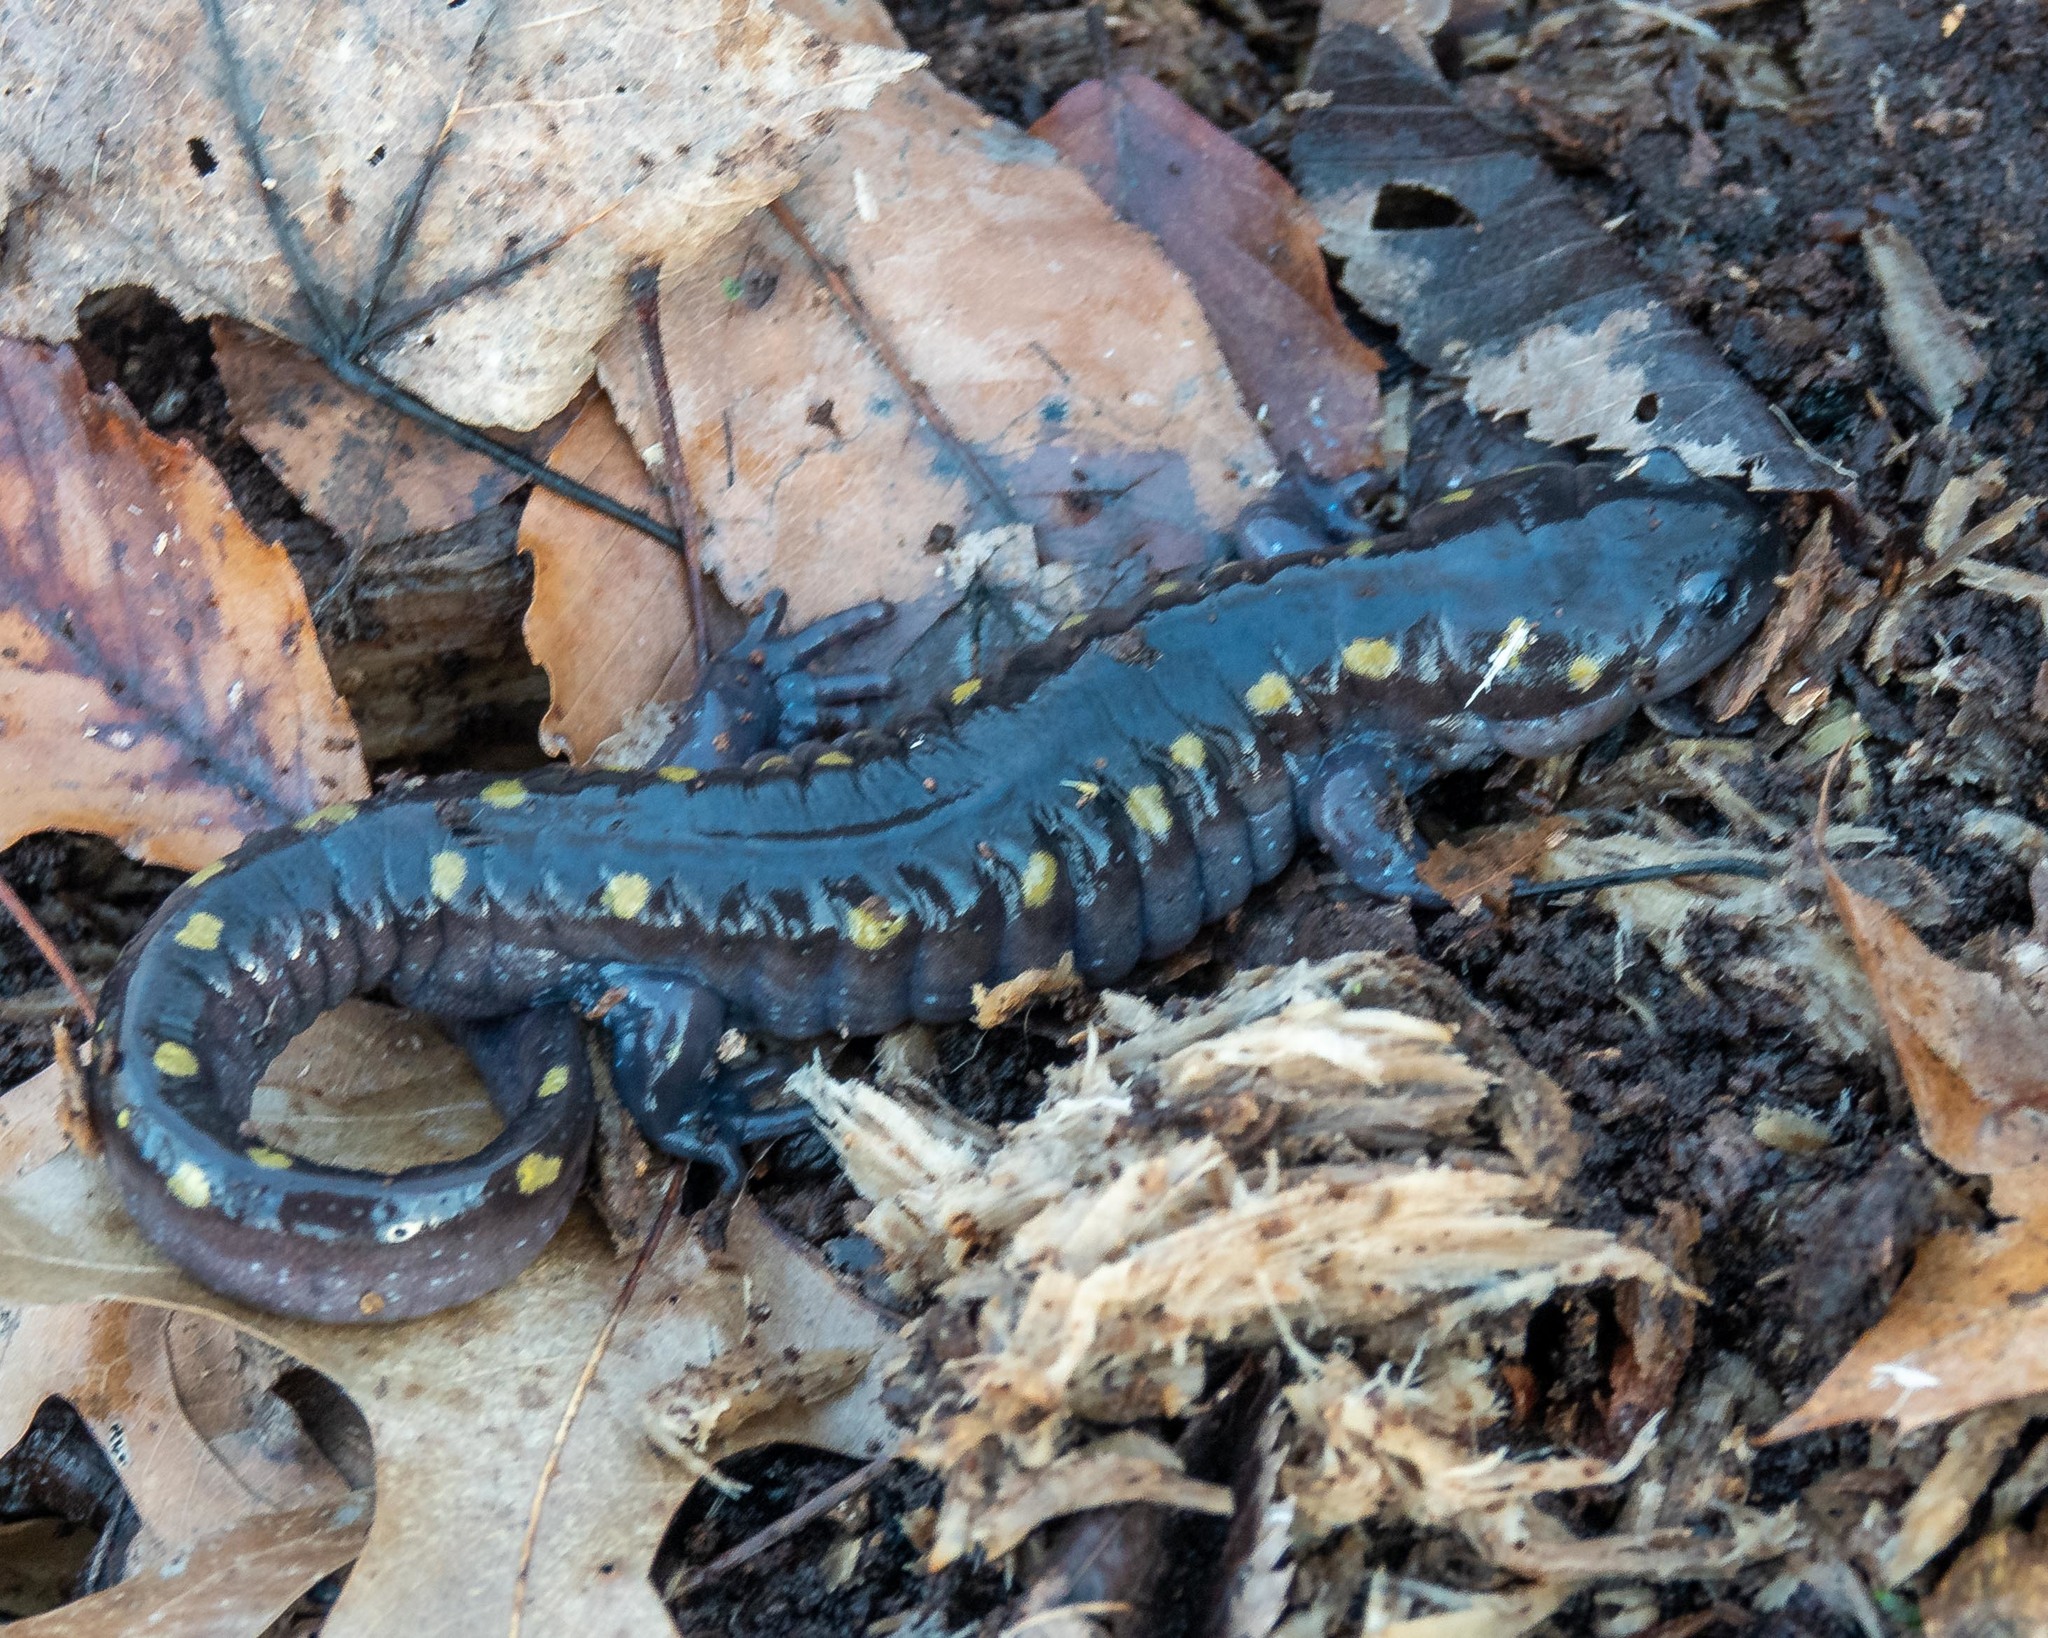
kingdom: Animalia
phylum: Chordata
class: Amphibia
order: Caudata
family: Ambystomatidae
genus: Ambystoma
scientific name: Ambystoma maculatum
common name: Spotted salamander
